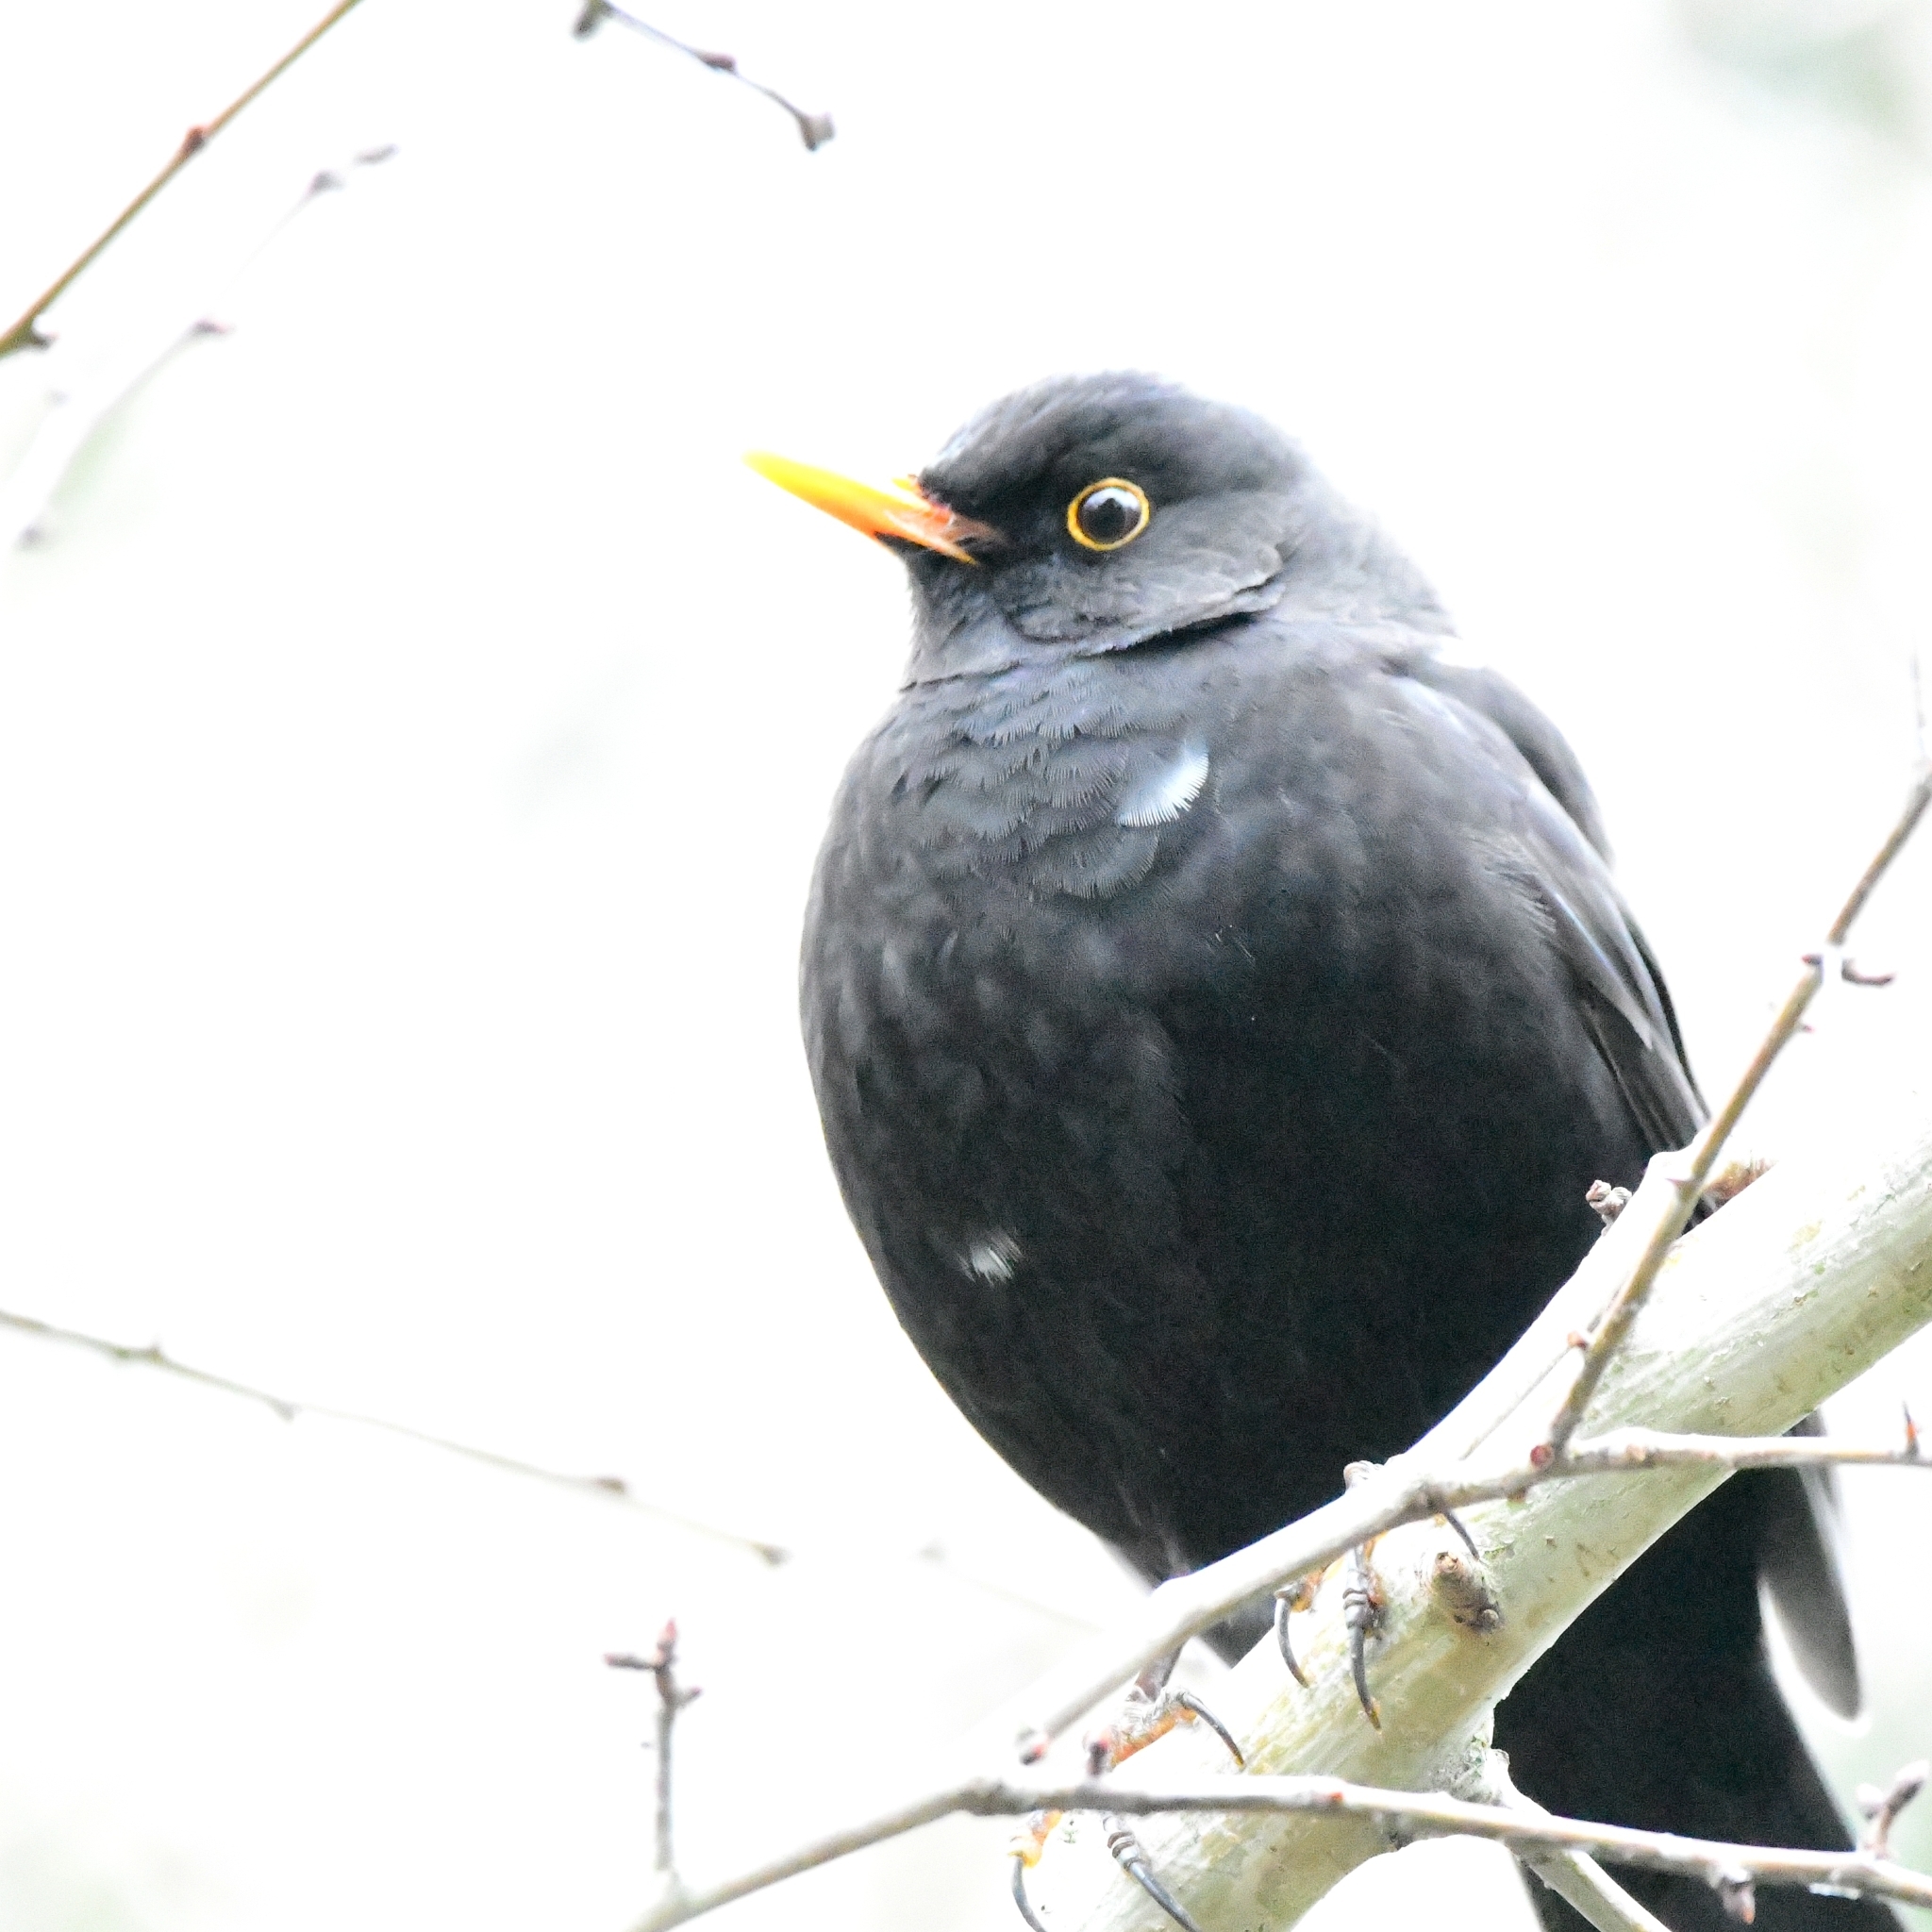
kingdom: Animalia
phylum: Chordata
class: Aves
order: Passeriformes
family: Turdidae
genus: Turdus
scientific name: Turdus merula
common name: Common blackbird
